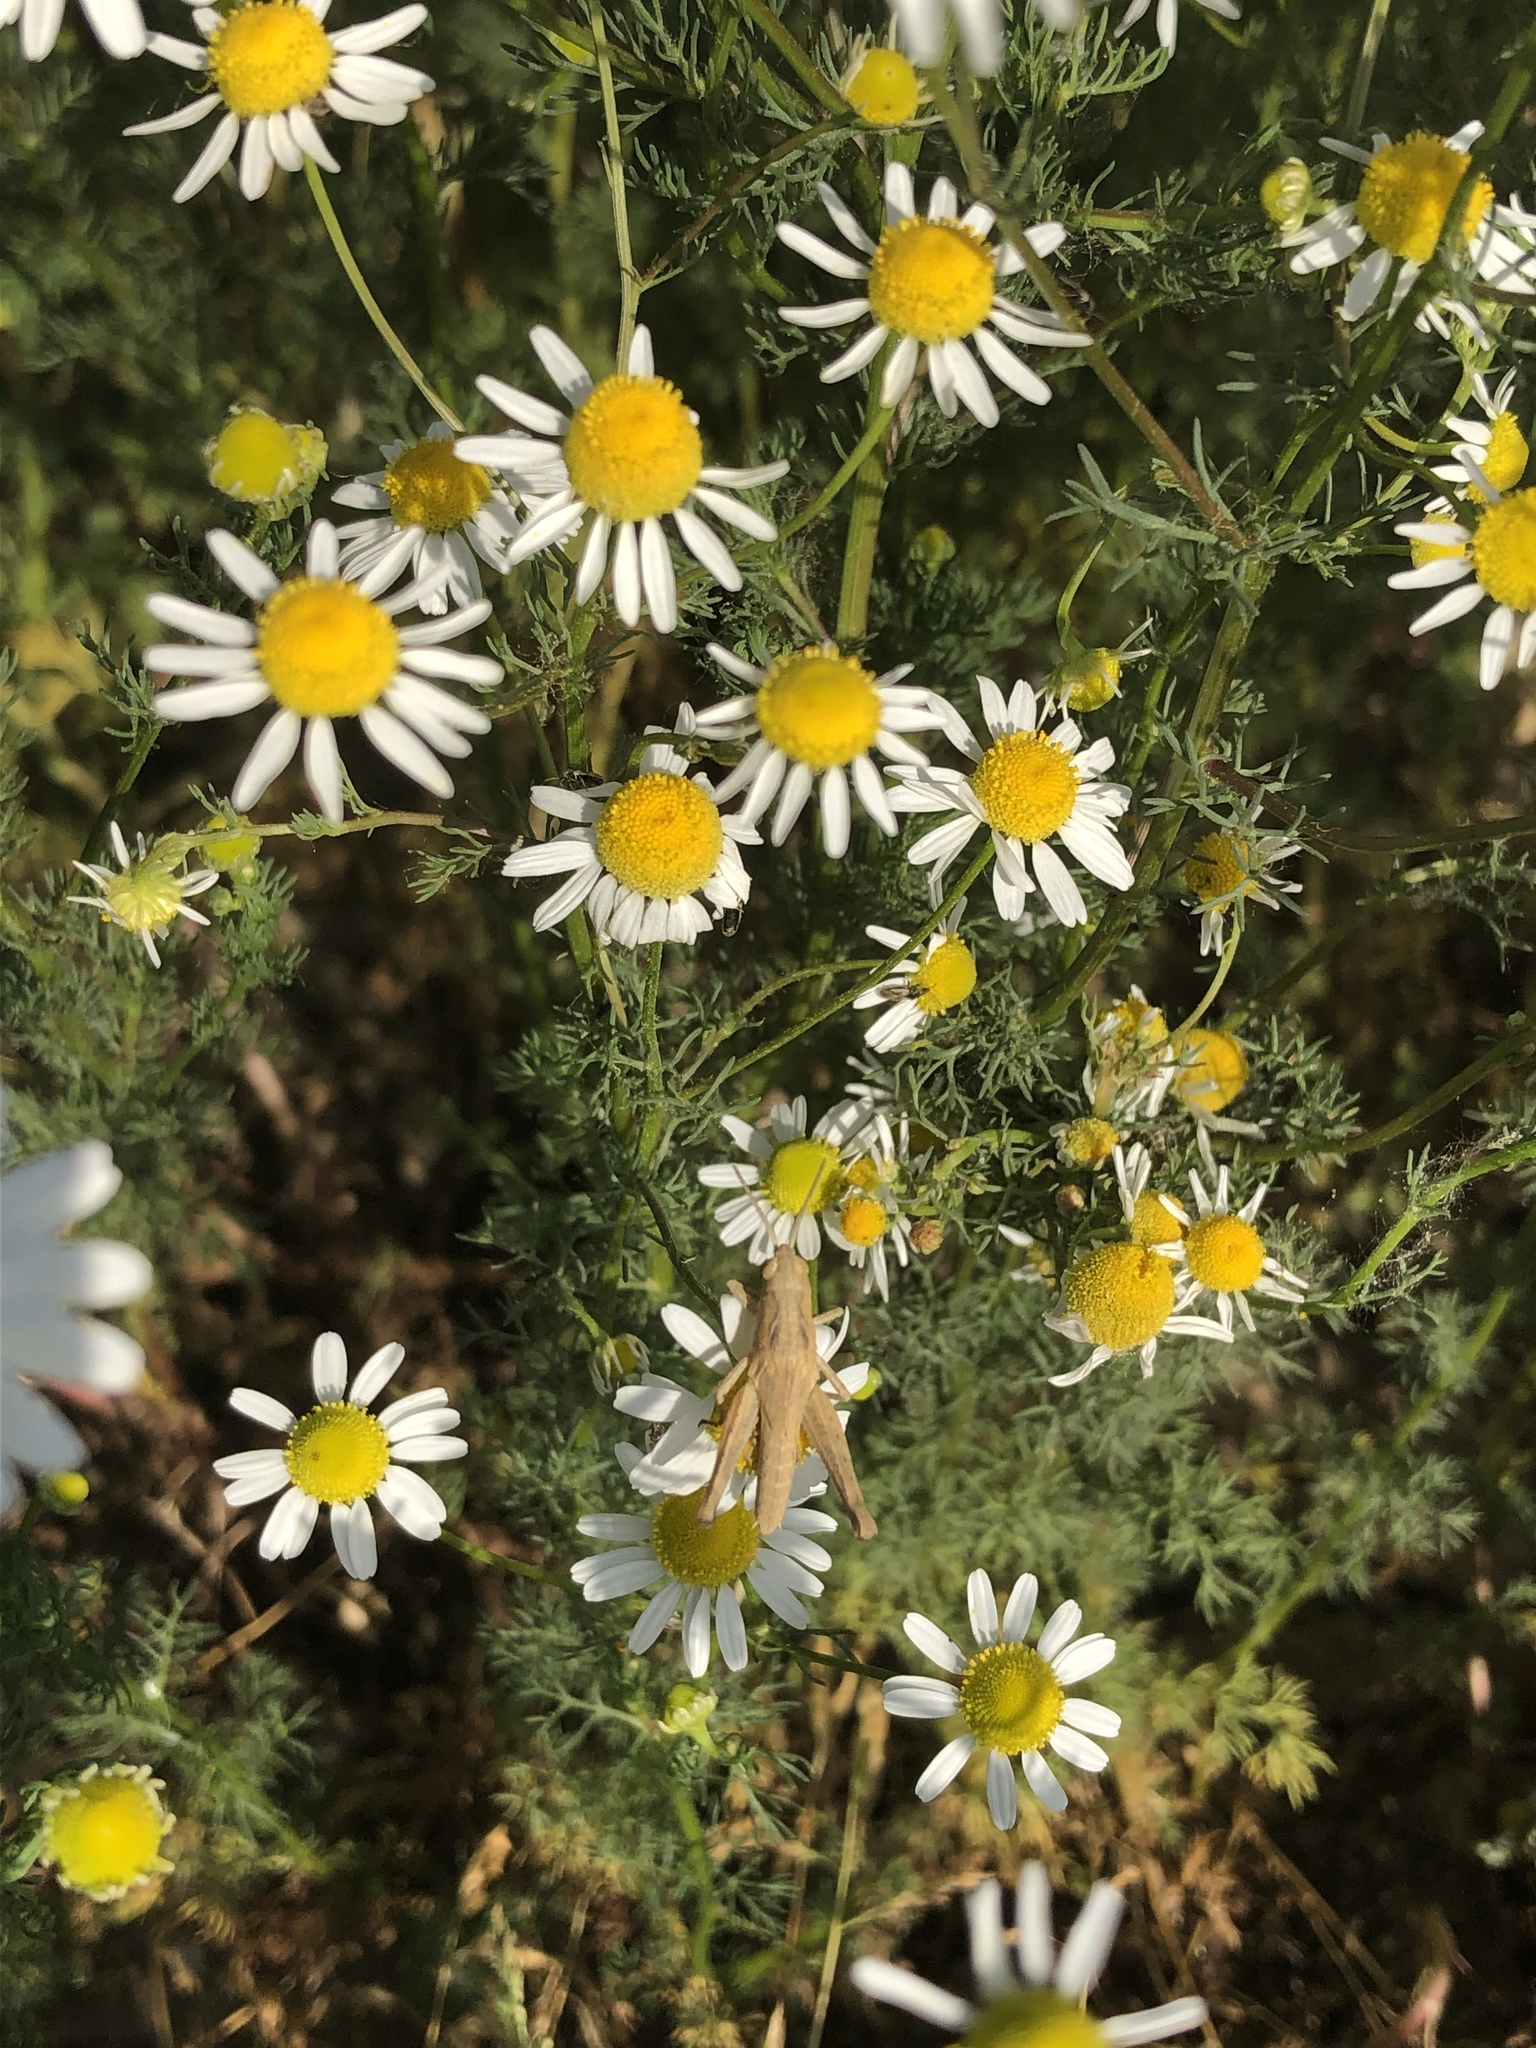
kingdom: Plantae
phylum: Tracheophyta
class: Magnoliopsida
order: Asterales
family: Asteraceae
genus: Matricaria
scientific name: Matricaria chamomilla
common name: Scented mayweed
